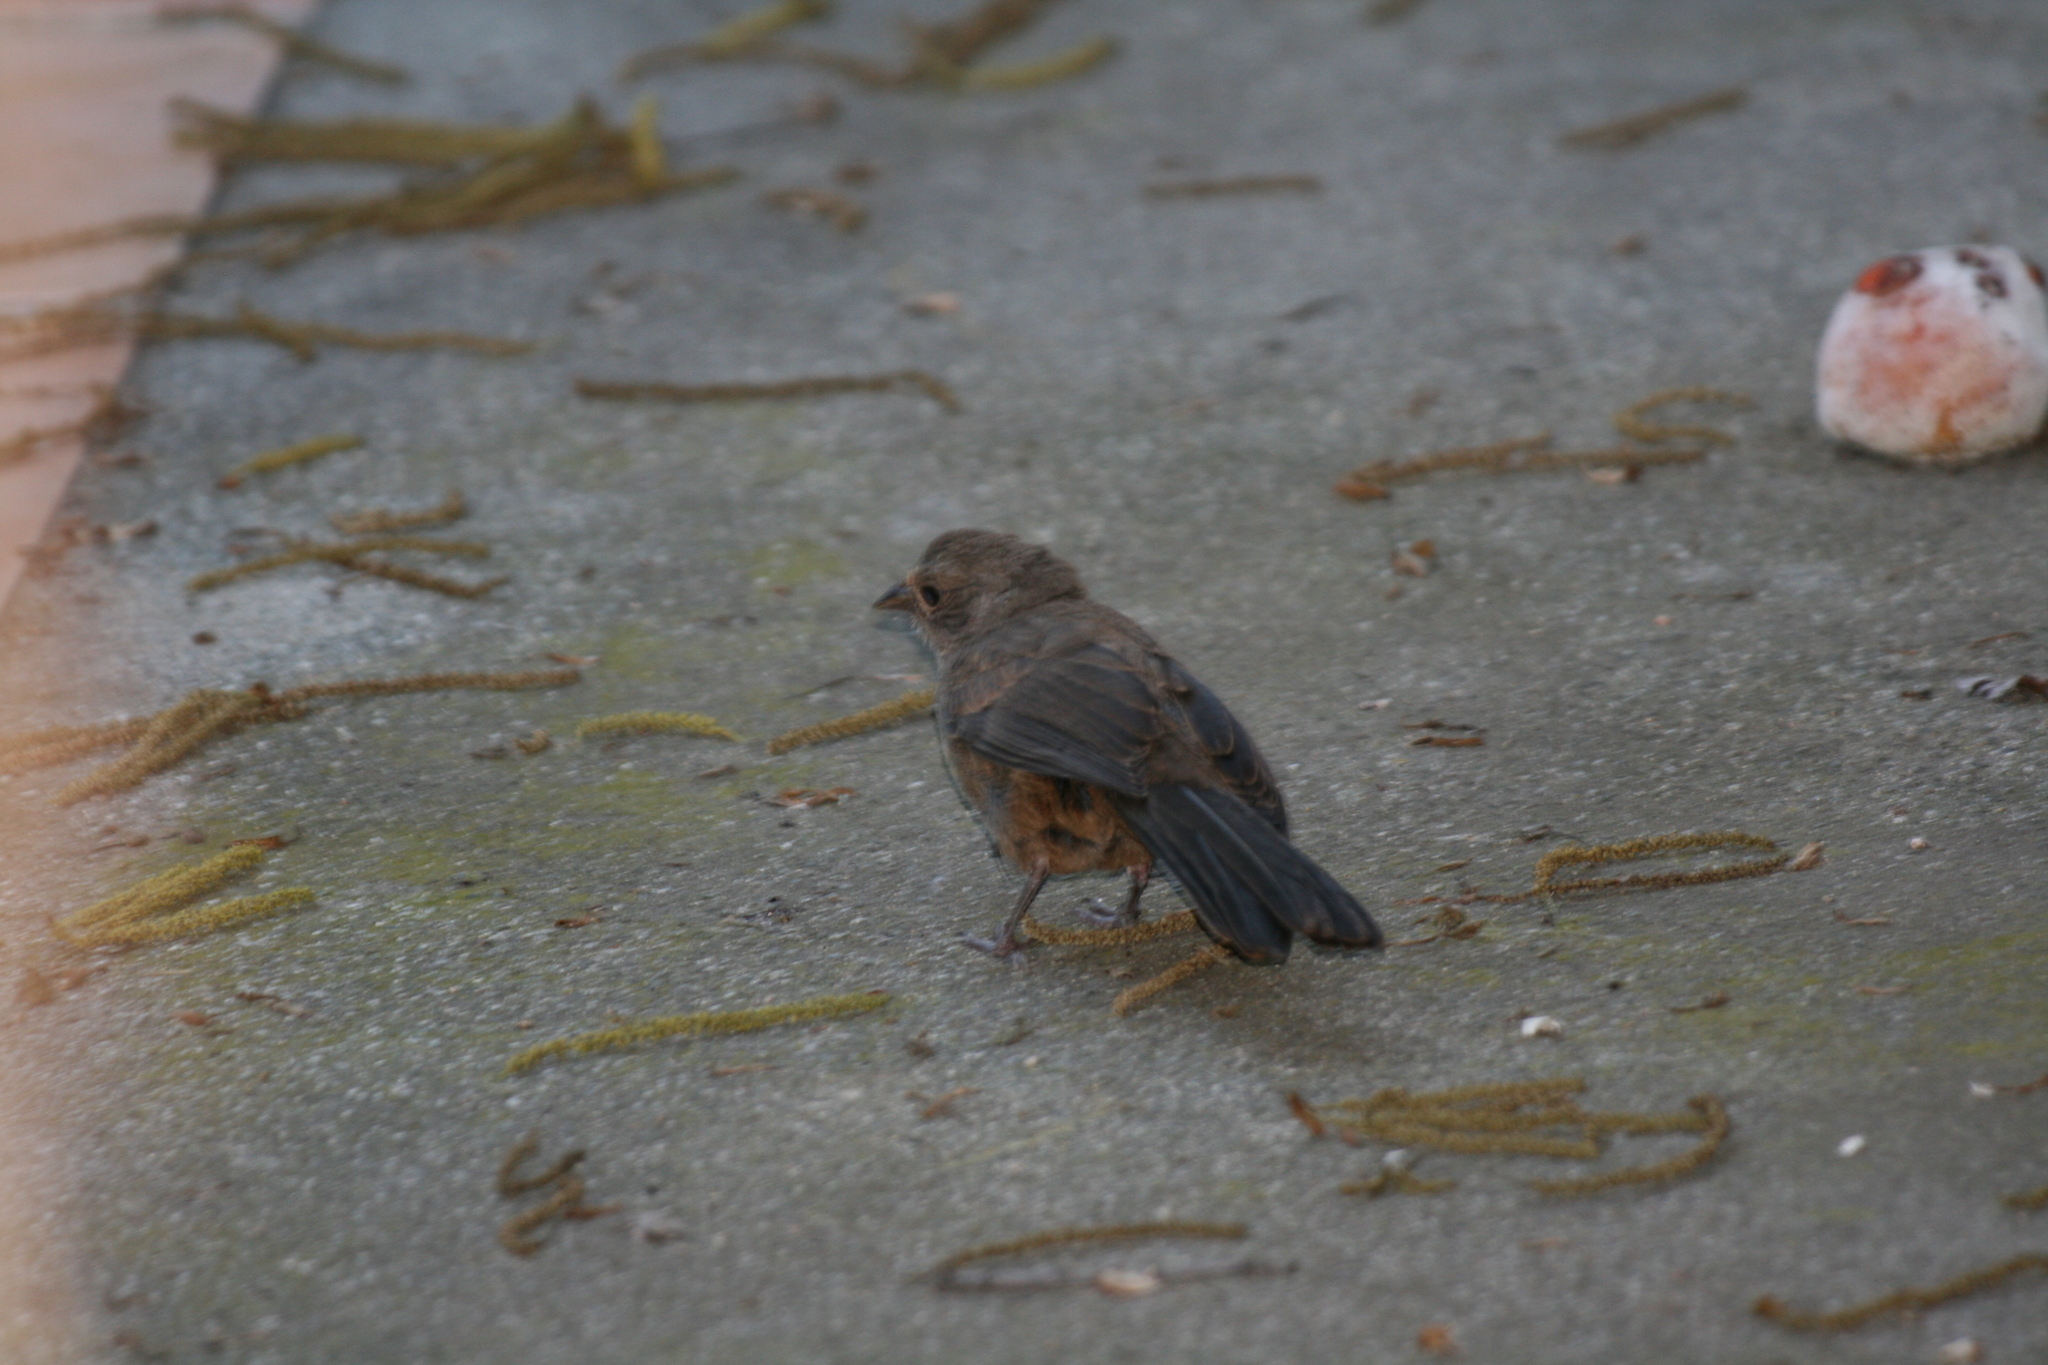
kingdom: Animalia
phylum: Chordata
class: Aves
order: Passeriformes
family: Passerellidae
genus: Melozone
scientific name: Melozone crissalis
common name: California towhee
